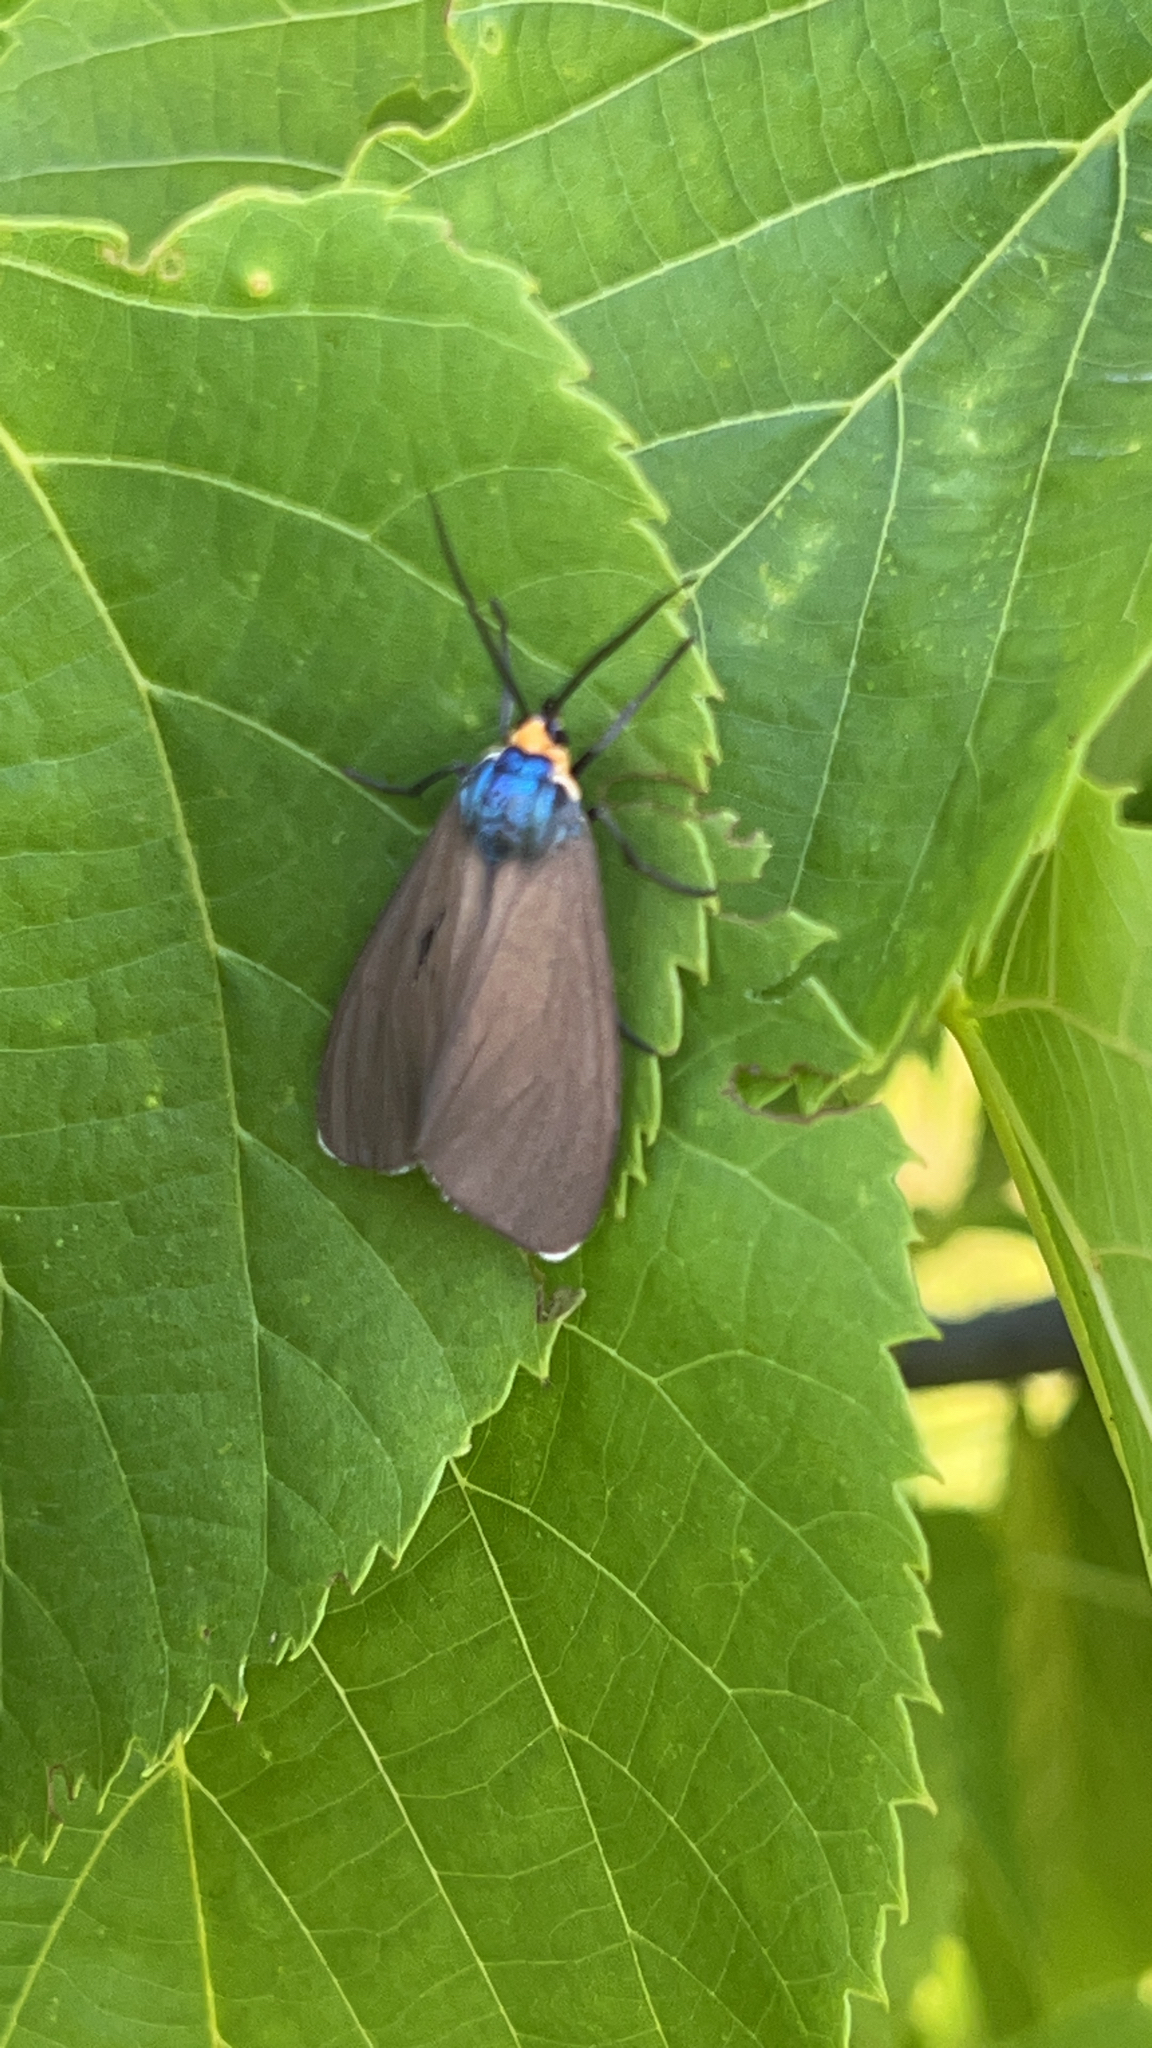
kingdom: Animalia
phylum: Arthropoda
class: Insecta
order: Lepidoptera
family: Erebidae
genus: Ctenucha
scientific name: Ctenucha virginica
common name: Virginia ctenucha moth
